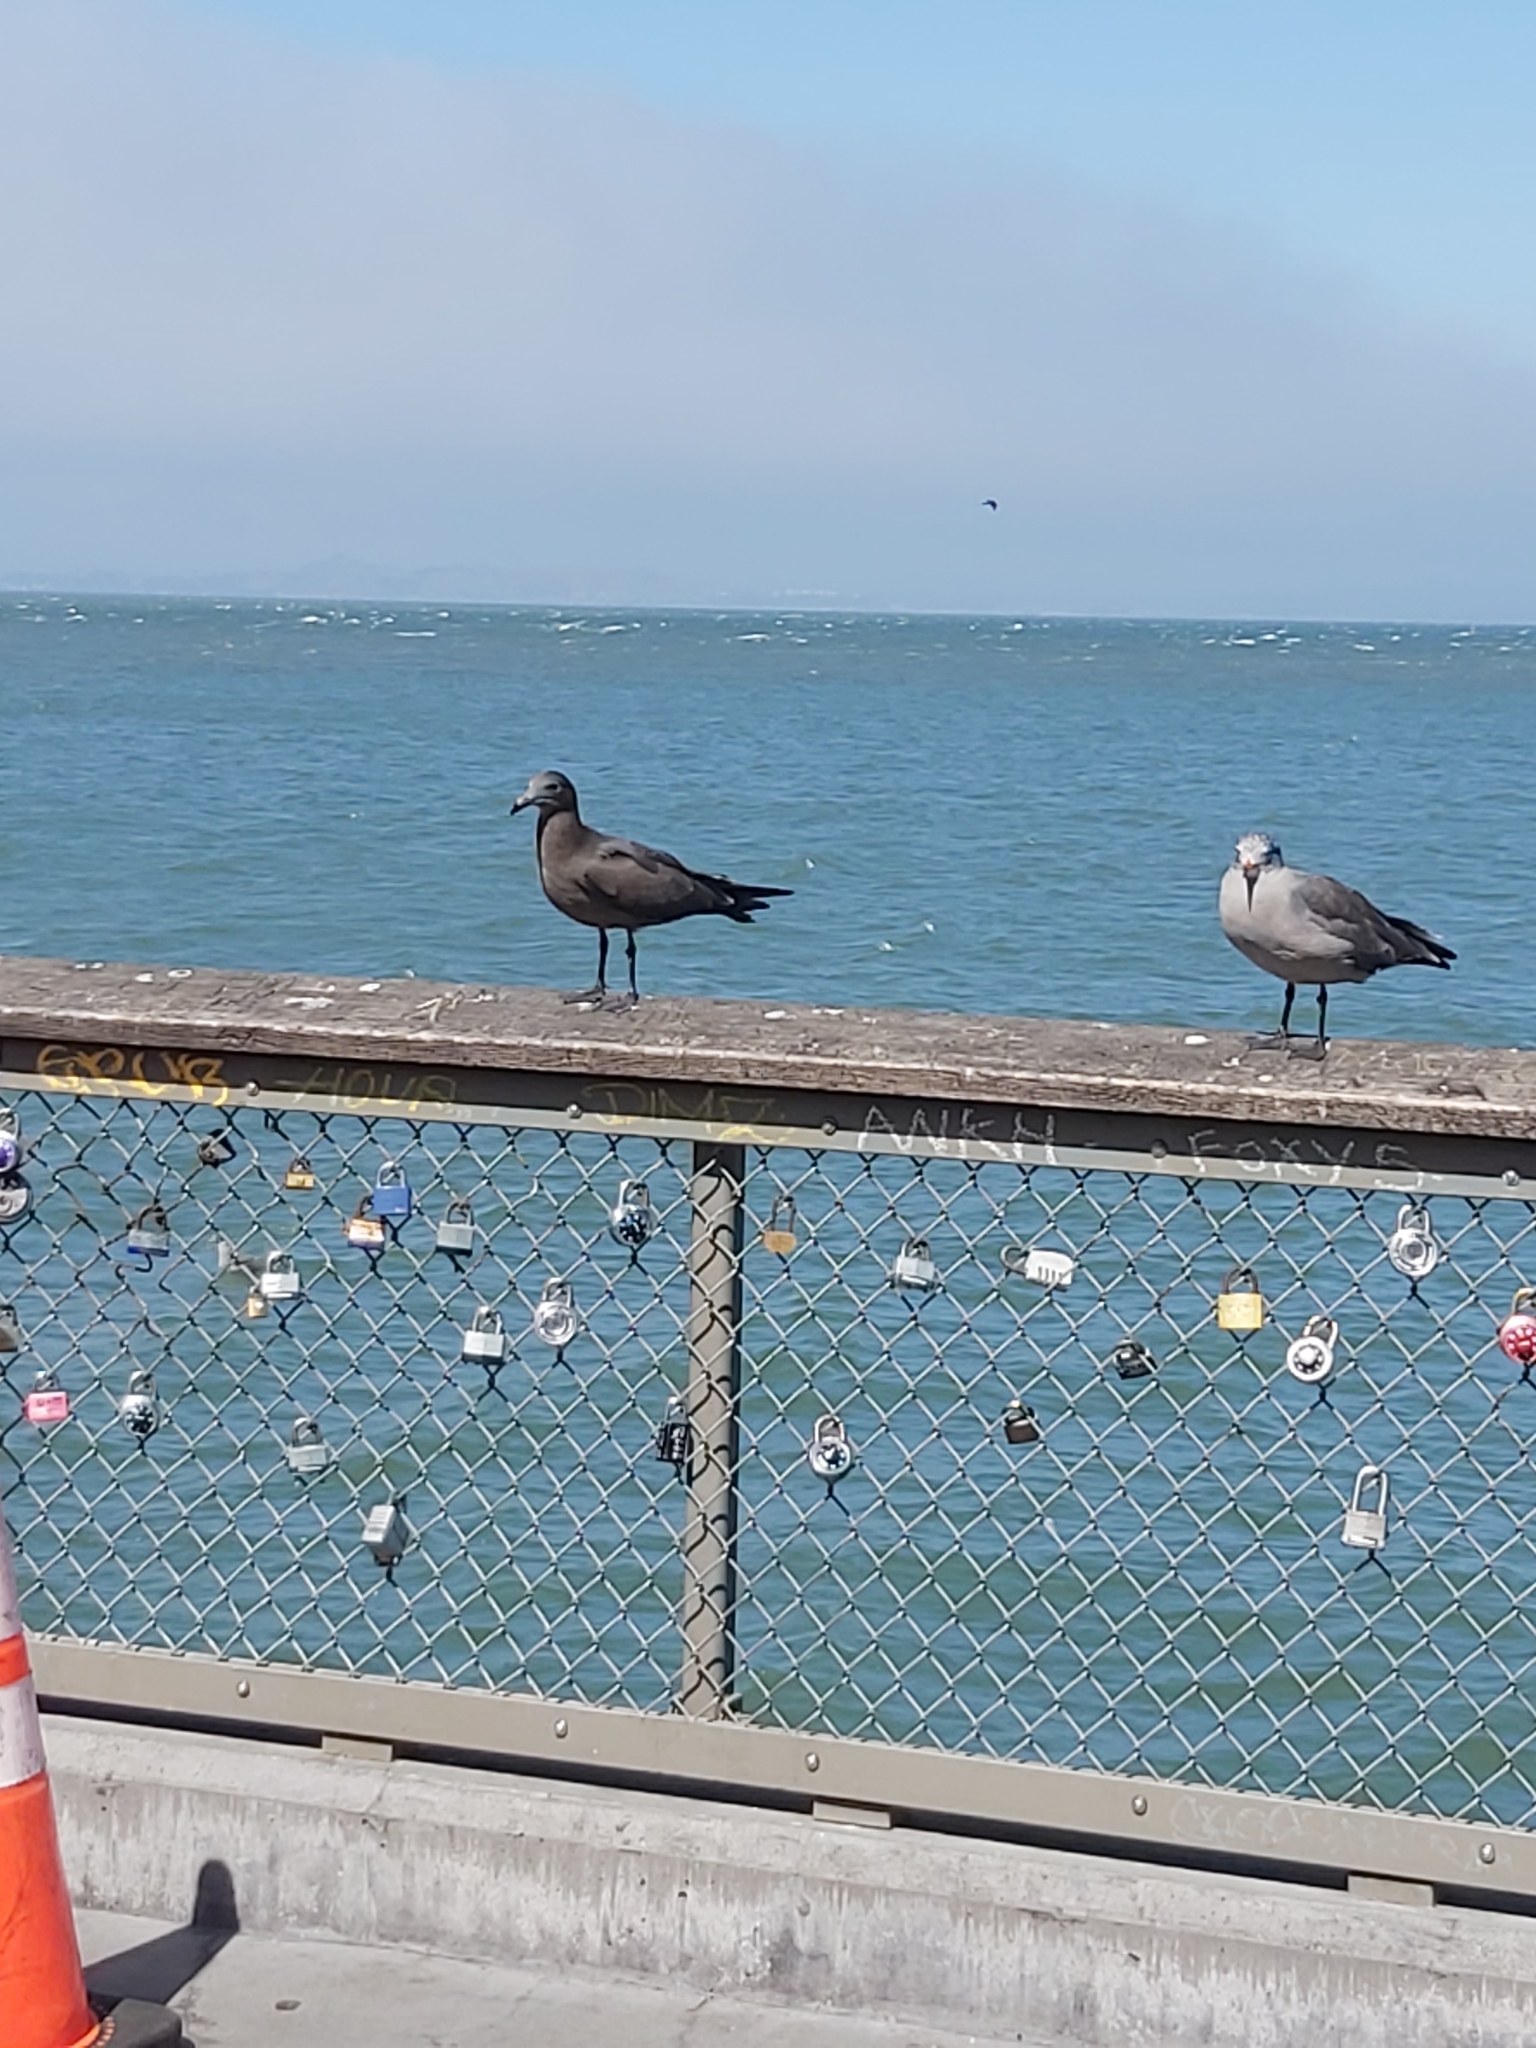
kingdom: Animalia
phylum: Chordata
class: Aves
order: Charadriiformes
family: Laridae
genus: Larus
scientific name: Larus heermanni
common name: Heermann's gull
